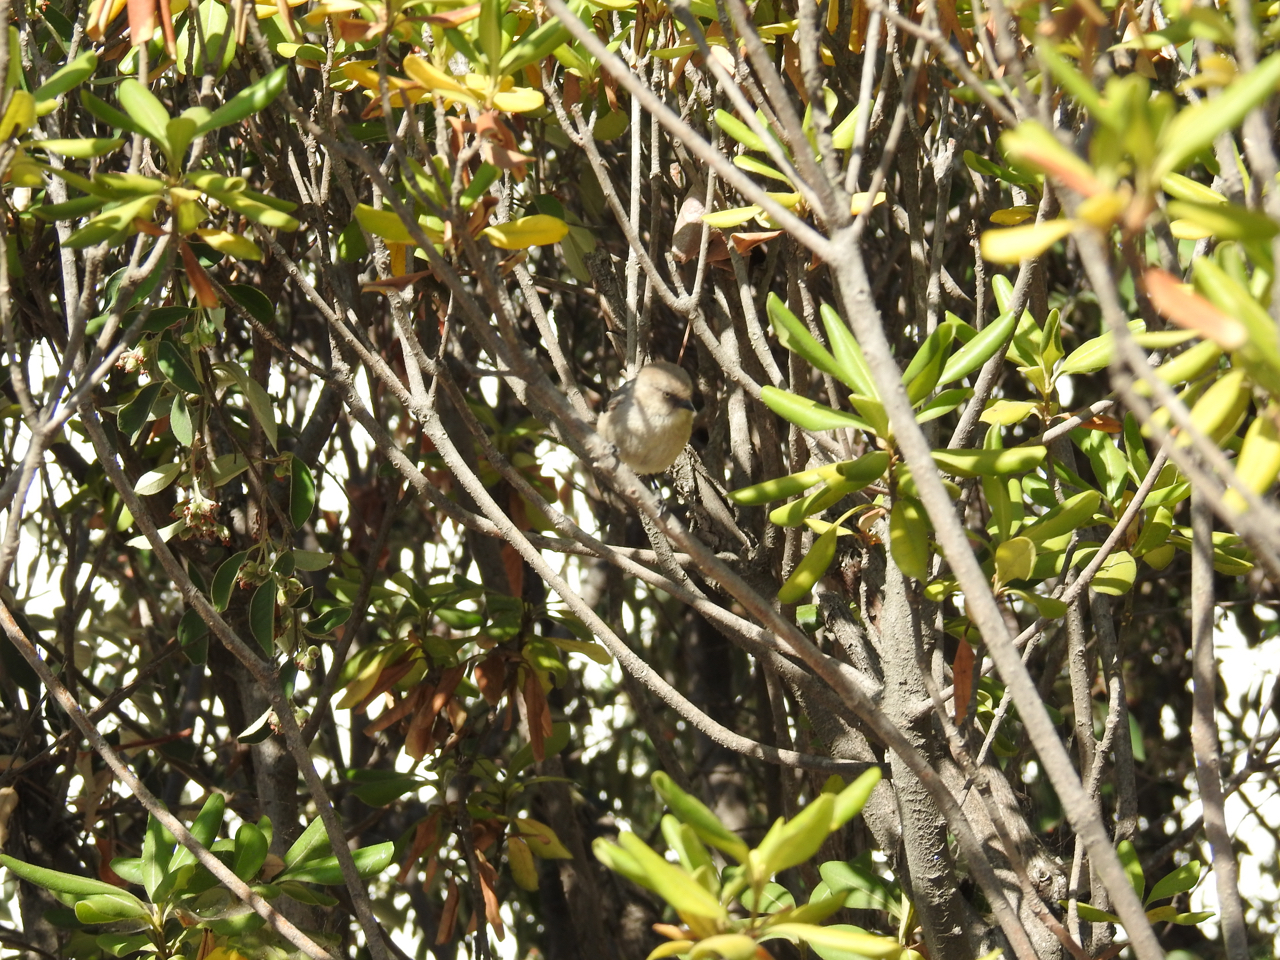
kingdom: Animalia
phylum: Chordata
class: Aves
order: Passeriformes
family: Aegithalidae
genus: Psaltriparus
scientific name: Psaltriparus minimus
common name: American bushtit
